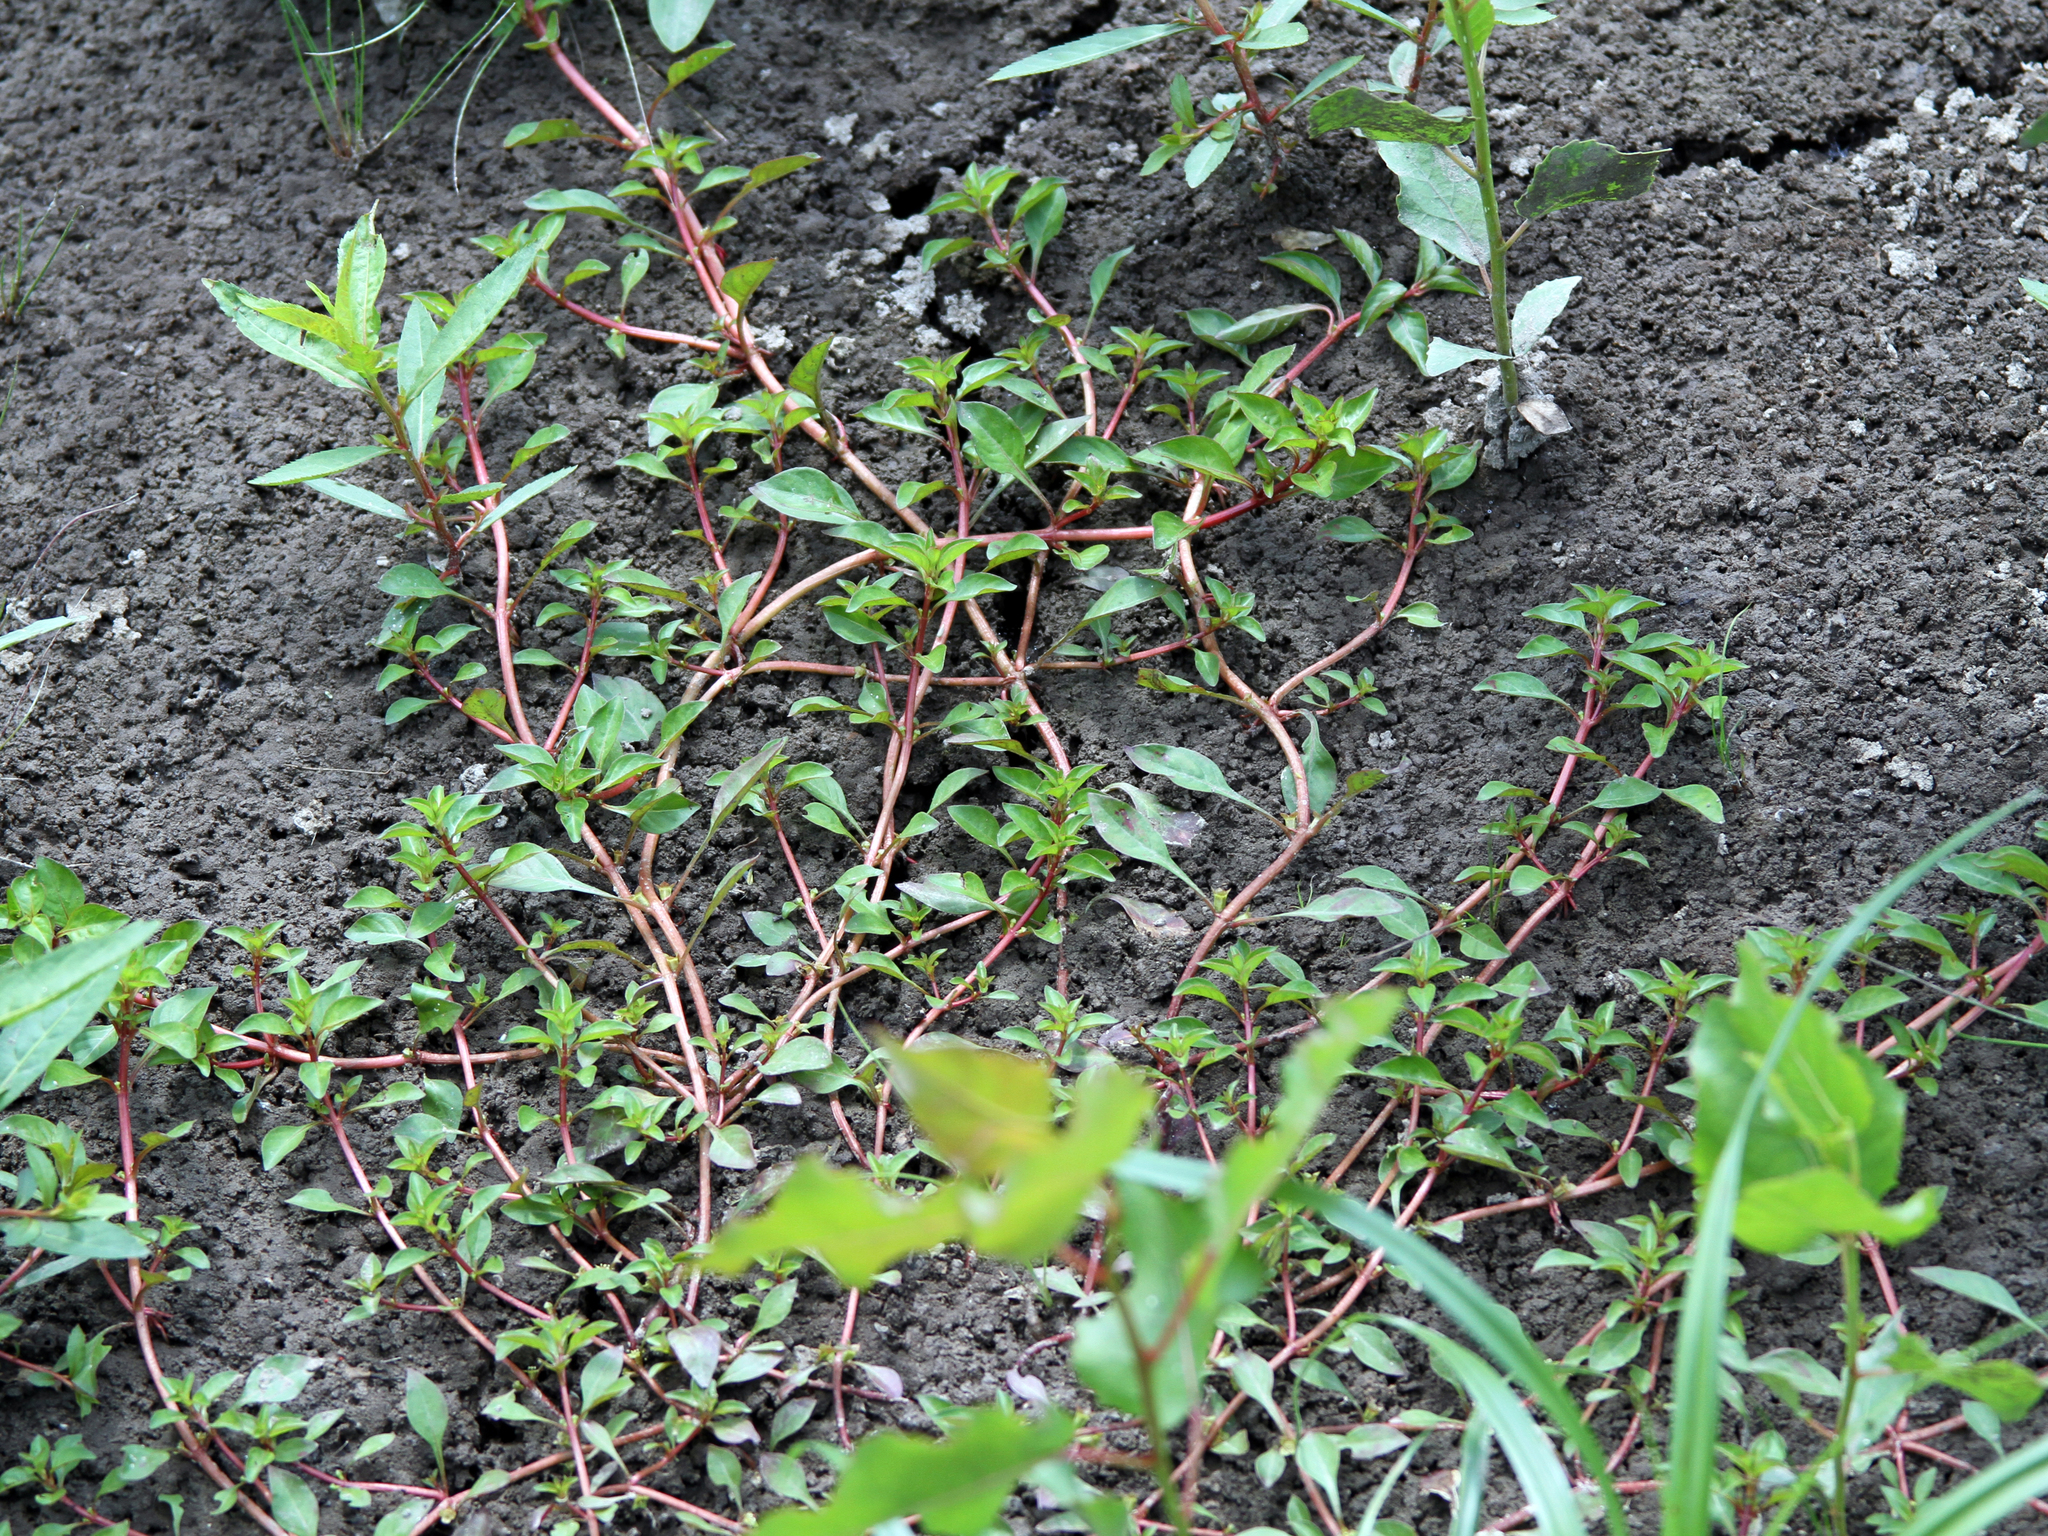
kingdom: Plantae
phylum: Tracheophyta
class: Magnoliopsida
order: Myrtales
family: Onagraceae
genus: Ludwigia
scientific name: Ludwigia palustris
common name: Hampshire-purslane
